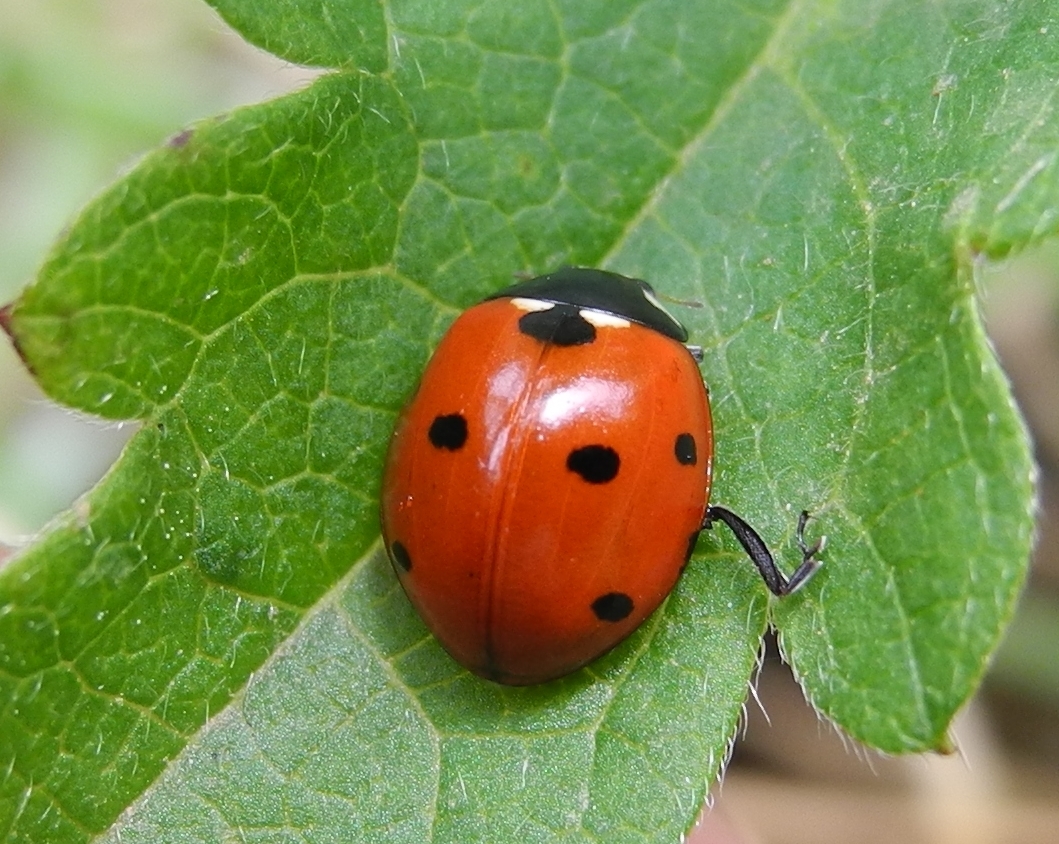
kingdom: Animalia
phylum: Arthropoda
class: Insecta
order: Coleoptera
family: Coccinellidae
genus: Coccinella
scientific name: Coccinella septempunctata
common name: Sevenspotted lady beetle
